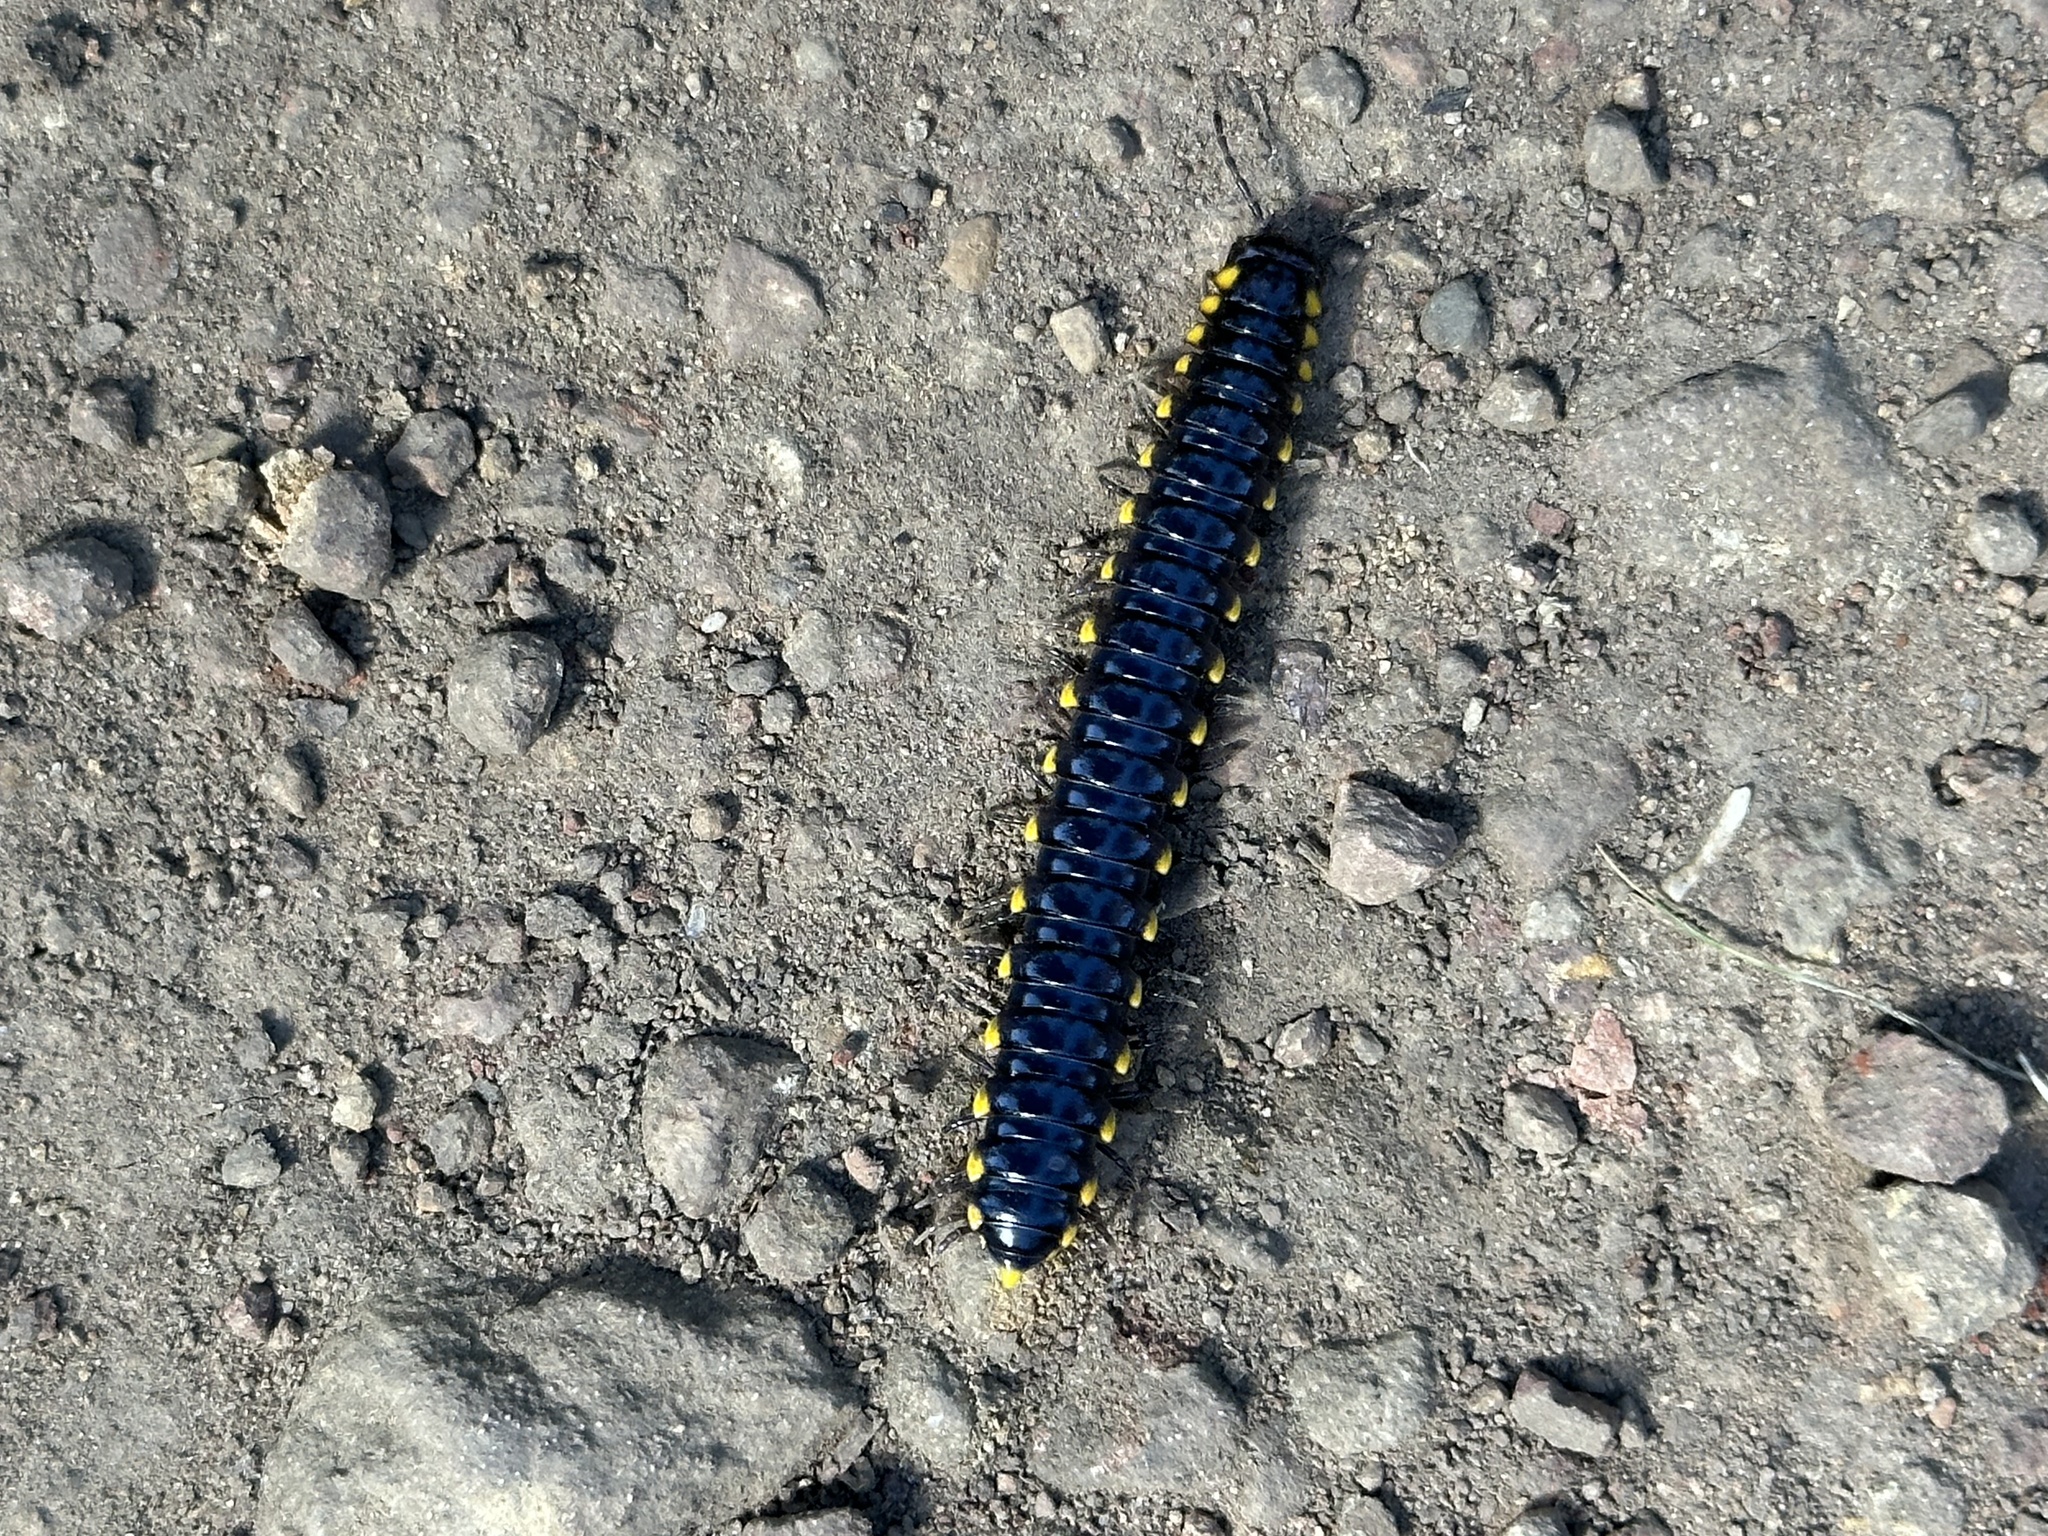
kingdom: Animalia
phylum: Arthropoda
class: Diplopoda
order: Polydesmida
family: Xystodesmidae
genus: Harpaphe
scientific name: Harpaphe haydeniana
